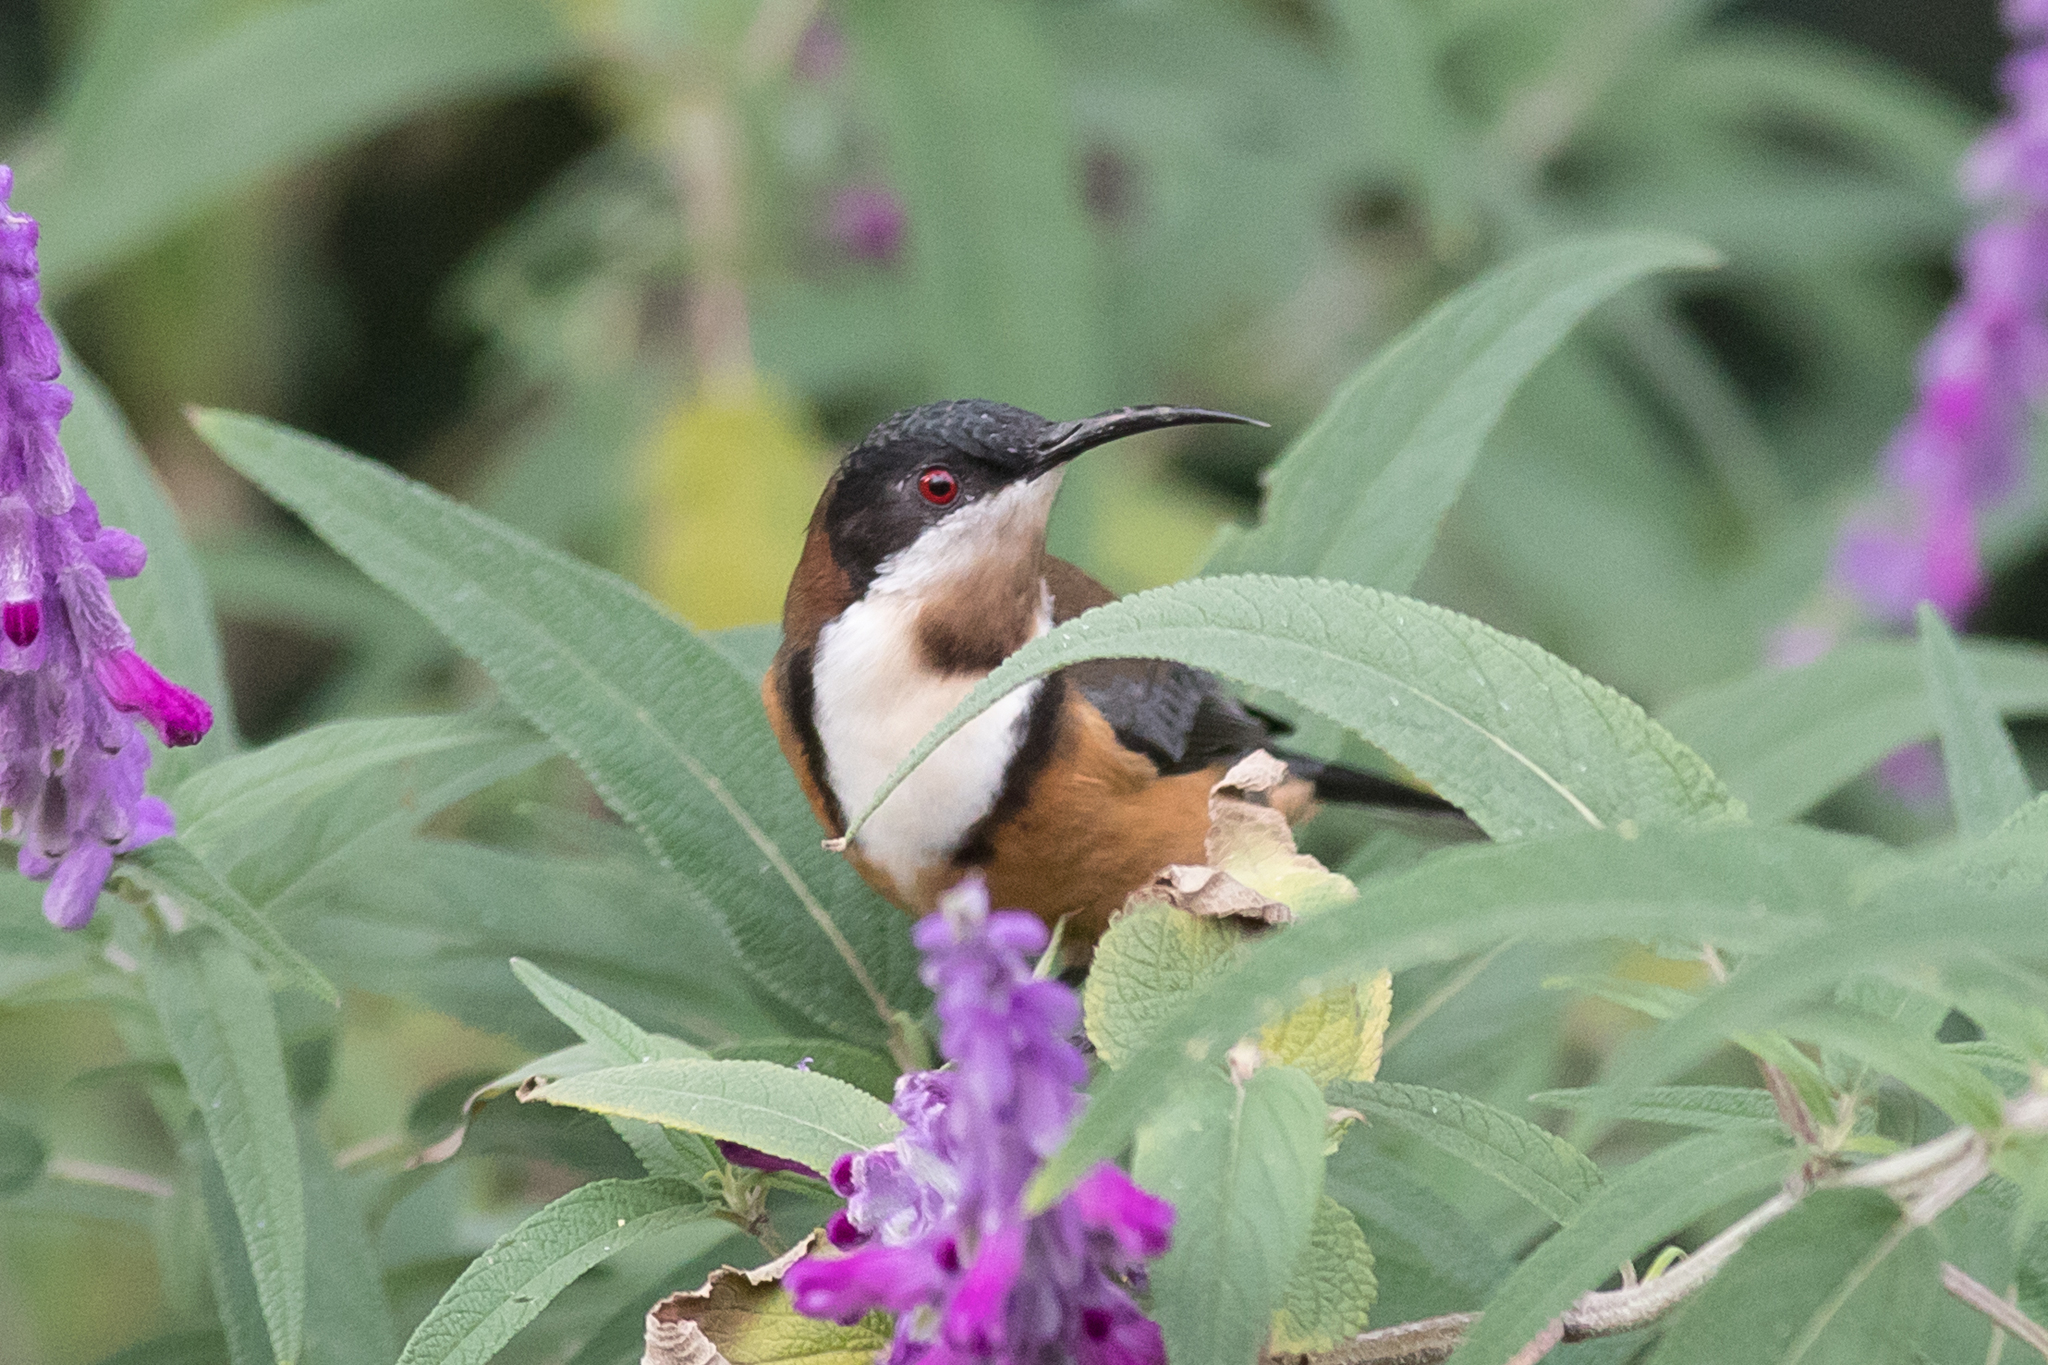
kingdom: Animalia
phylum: Chordata
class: Aves
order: Passeriformes
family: Meliphagidae
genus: Acanthorhynchus
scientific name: Acanthorhynchus tenuirostris
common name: Eastern spinebill
